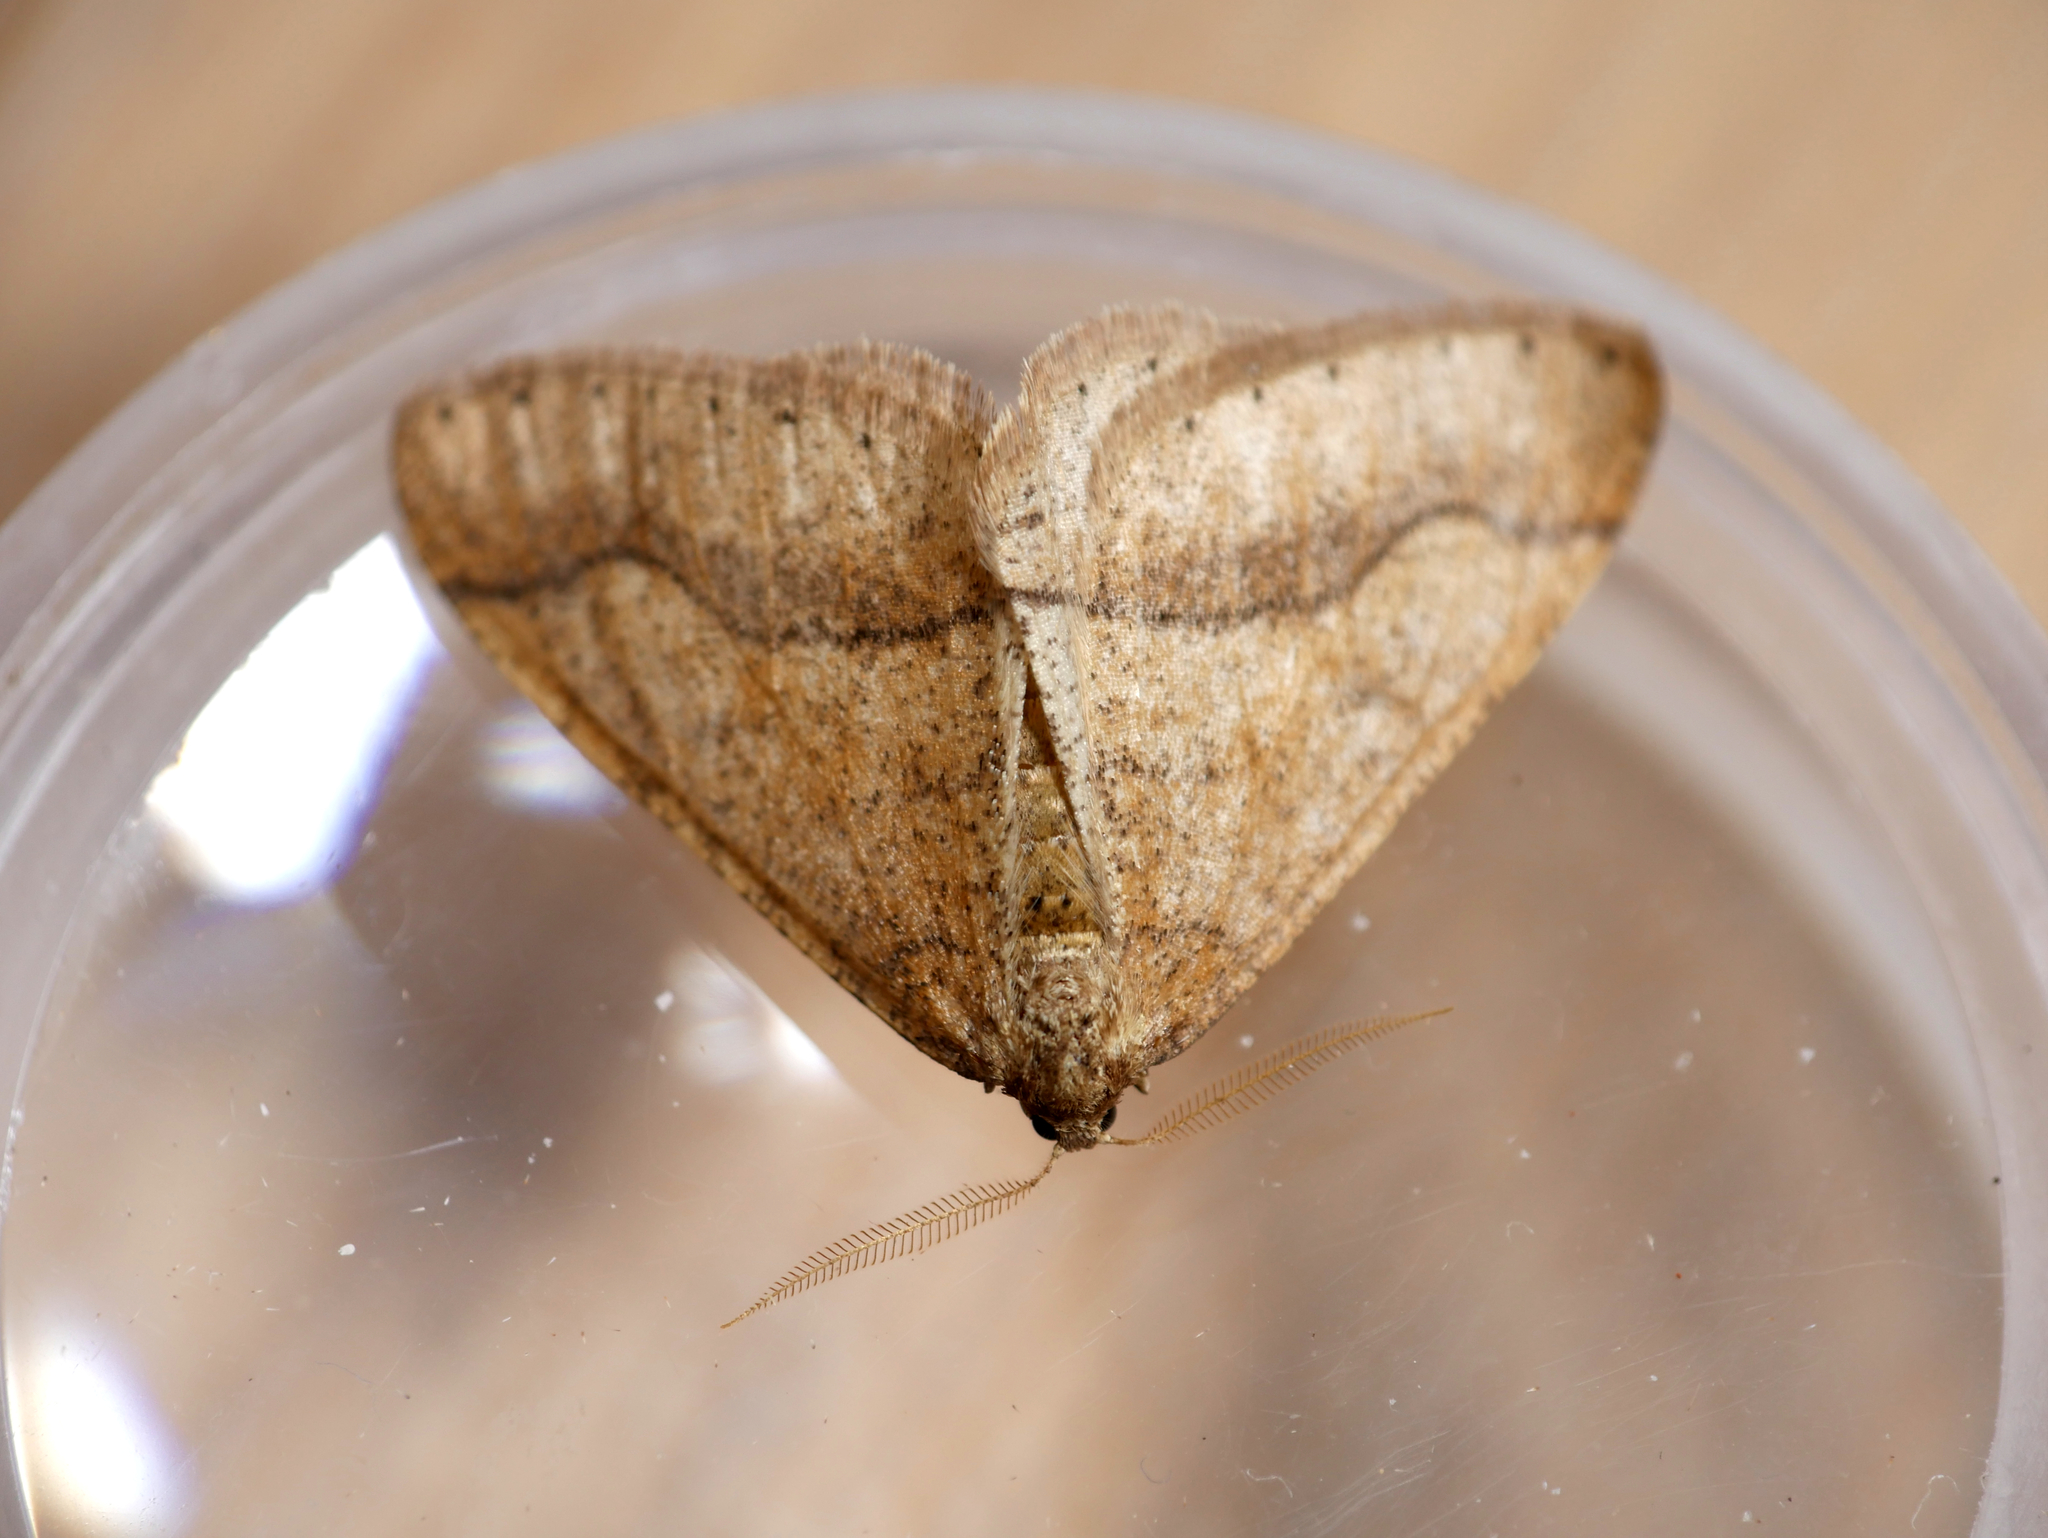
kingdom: Animalia
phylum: Arthropoda
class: Insecta
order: Lepidoptera
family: Geometridae
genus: Agriopis
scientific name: Agriopis marginaria
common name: Dotted border
